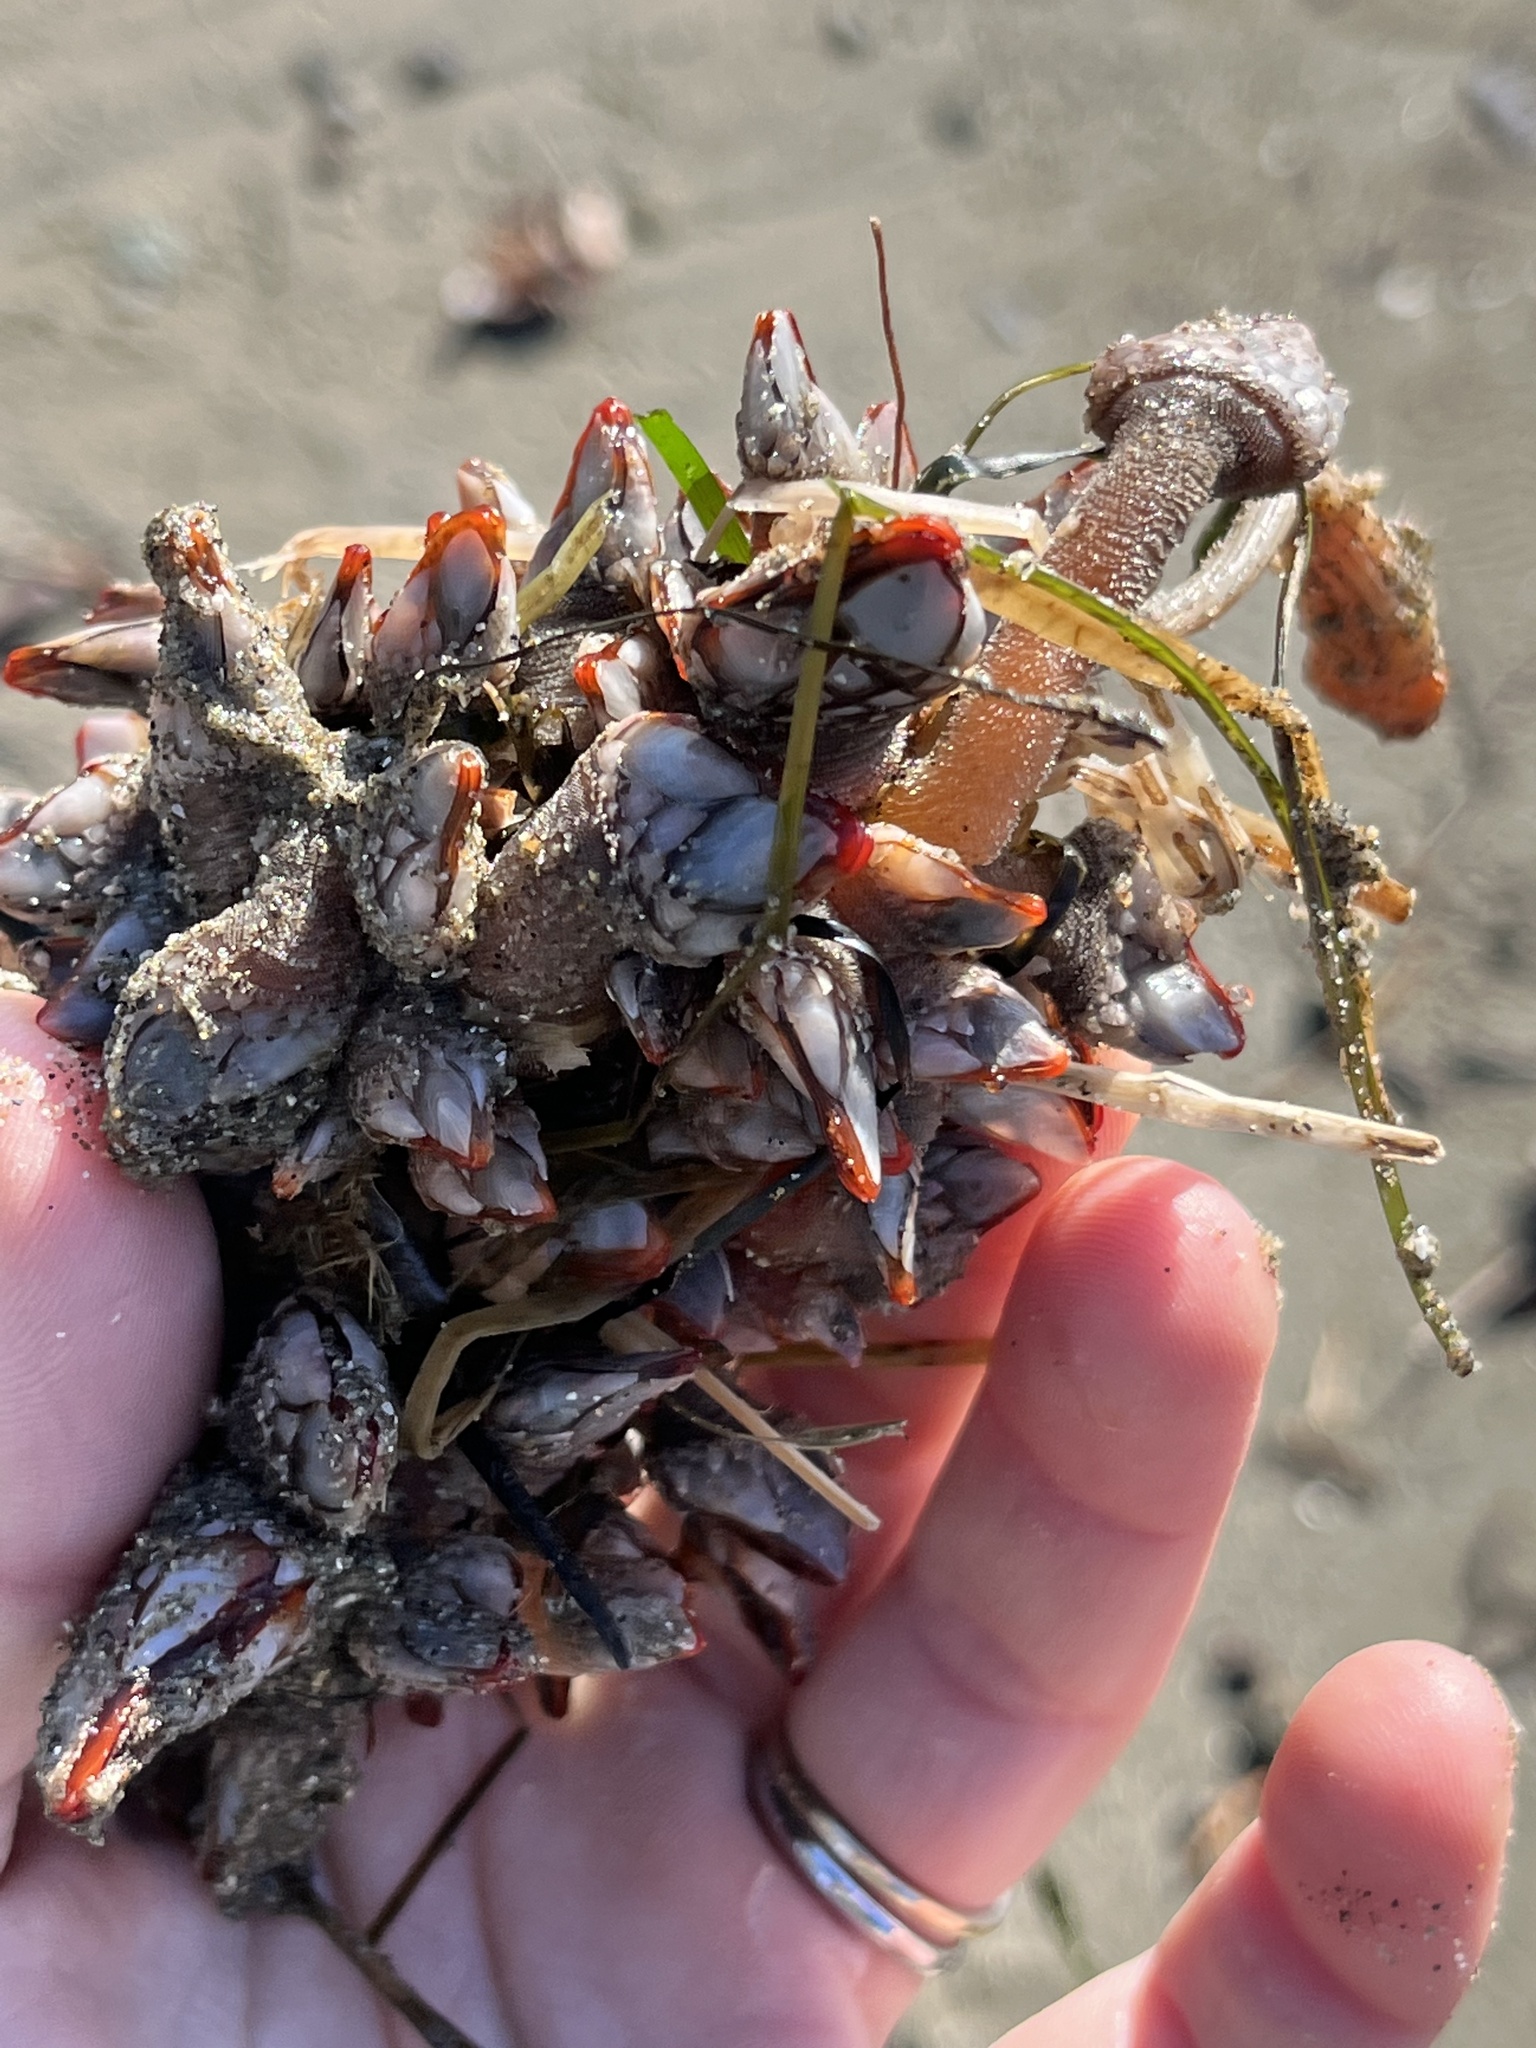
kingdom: Animalia
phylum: Arthropoda
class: Maxillopoda
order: Pedunculata
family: Pollicipedidae
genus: Pollicipes
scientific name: Pollicipes polymerus
